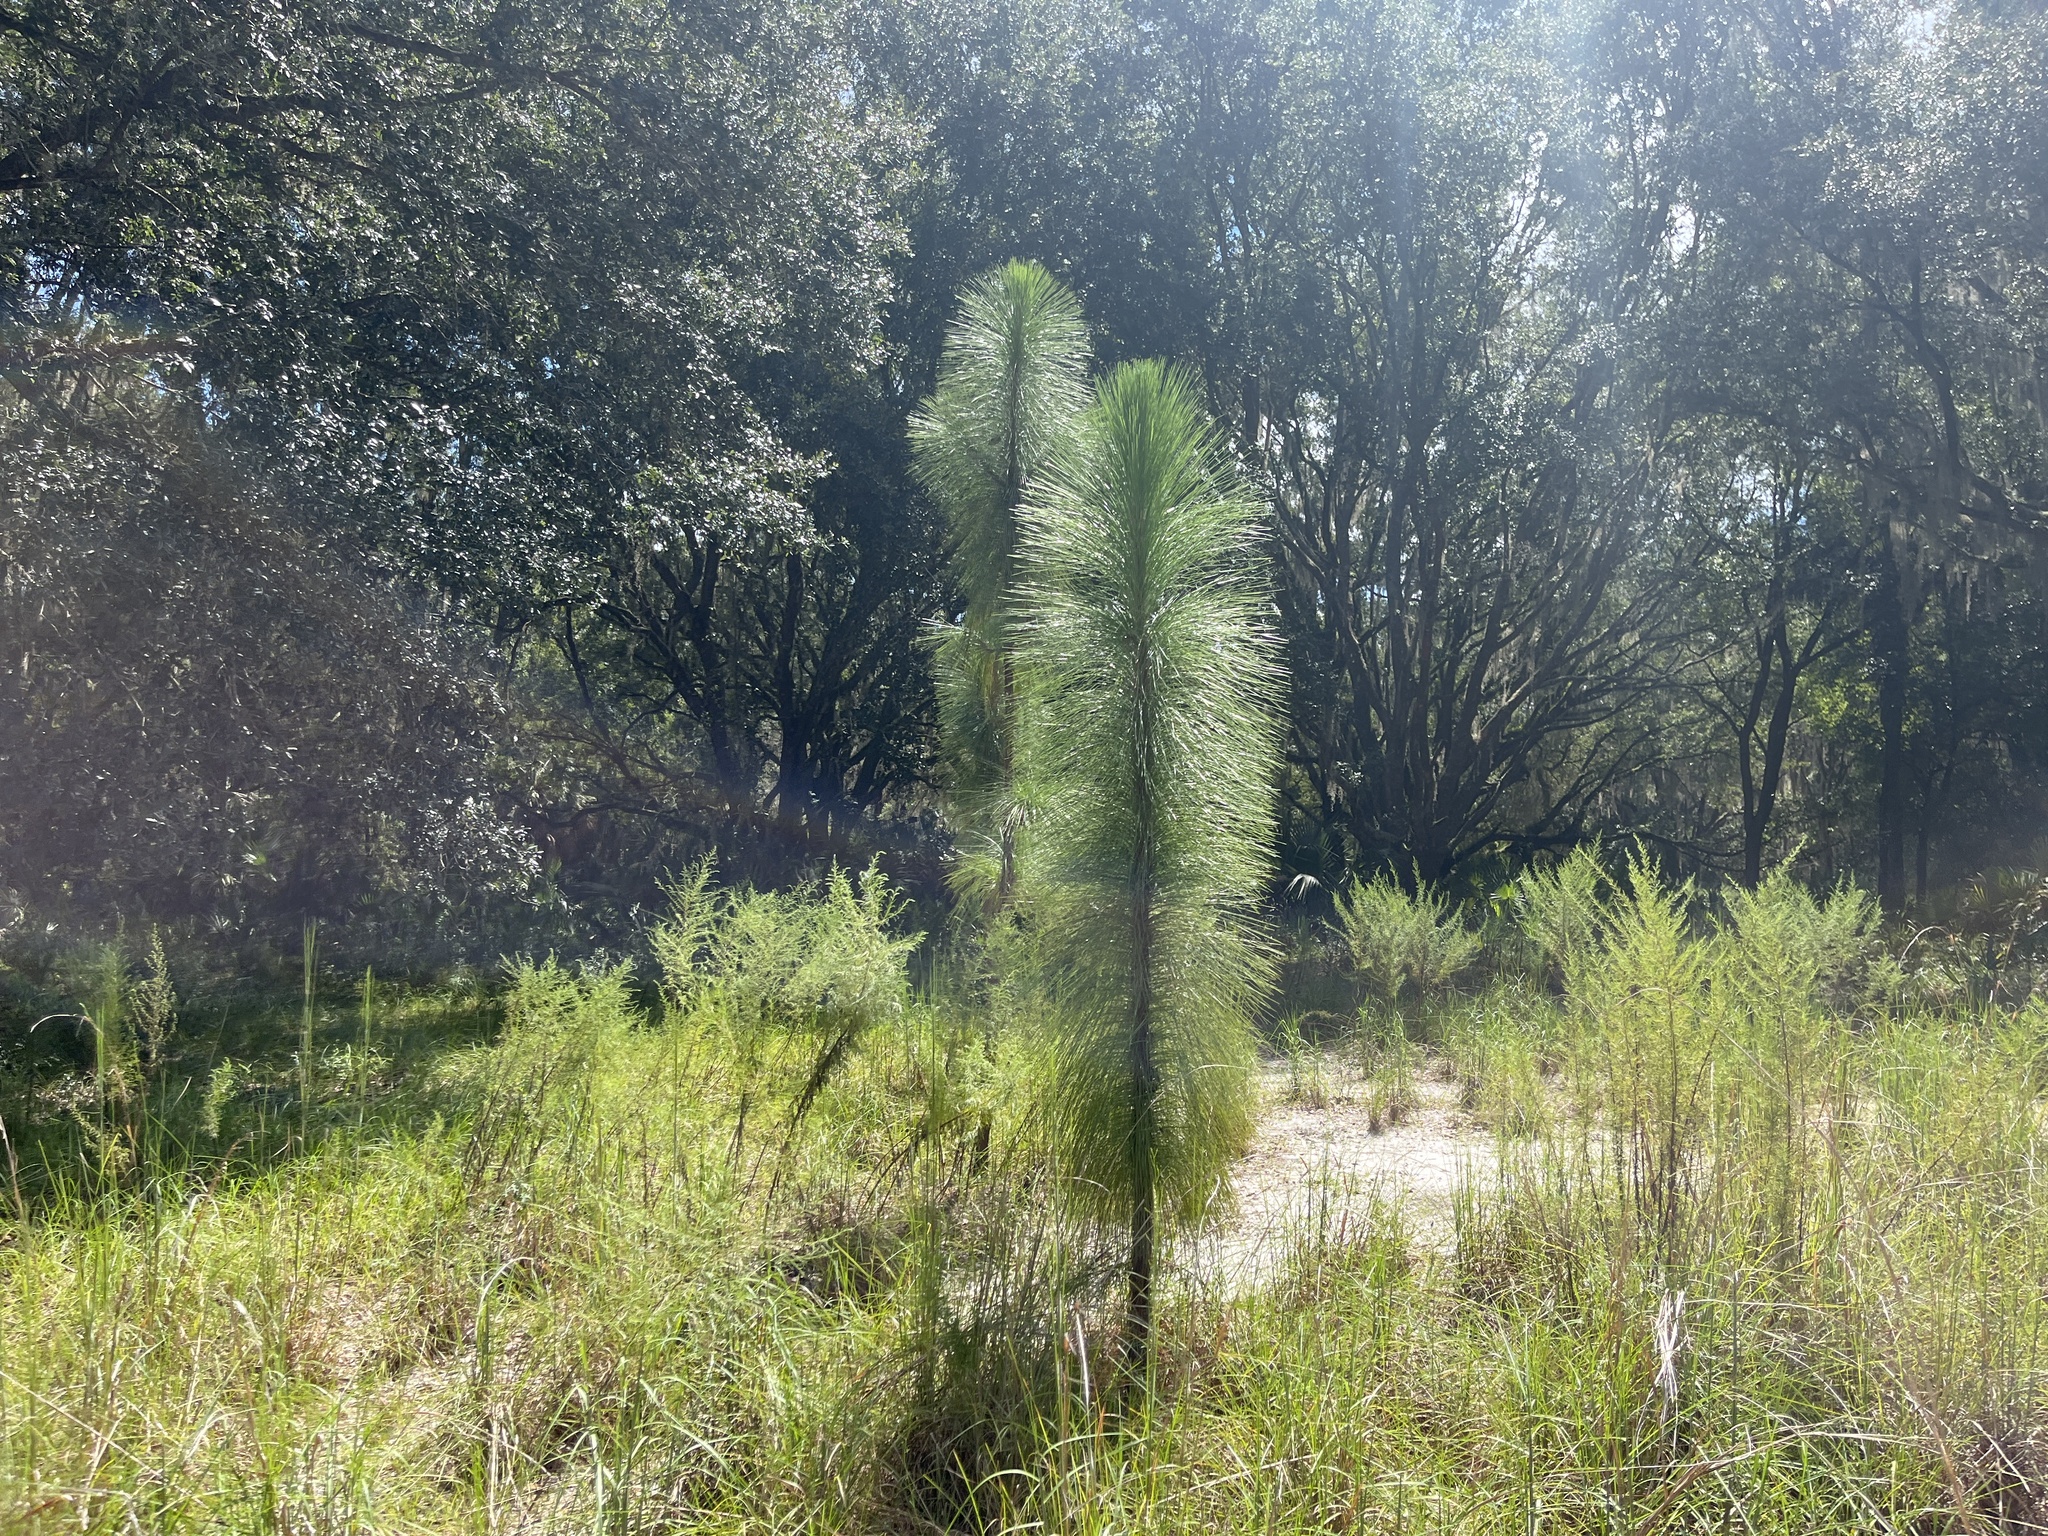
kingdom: Plantae
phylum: Tracheophyta
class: Pinopsida
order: Pinales
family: Pinaceae
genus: Pinus
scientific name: Pinus palustris
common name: Longleaf pine
